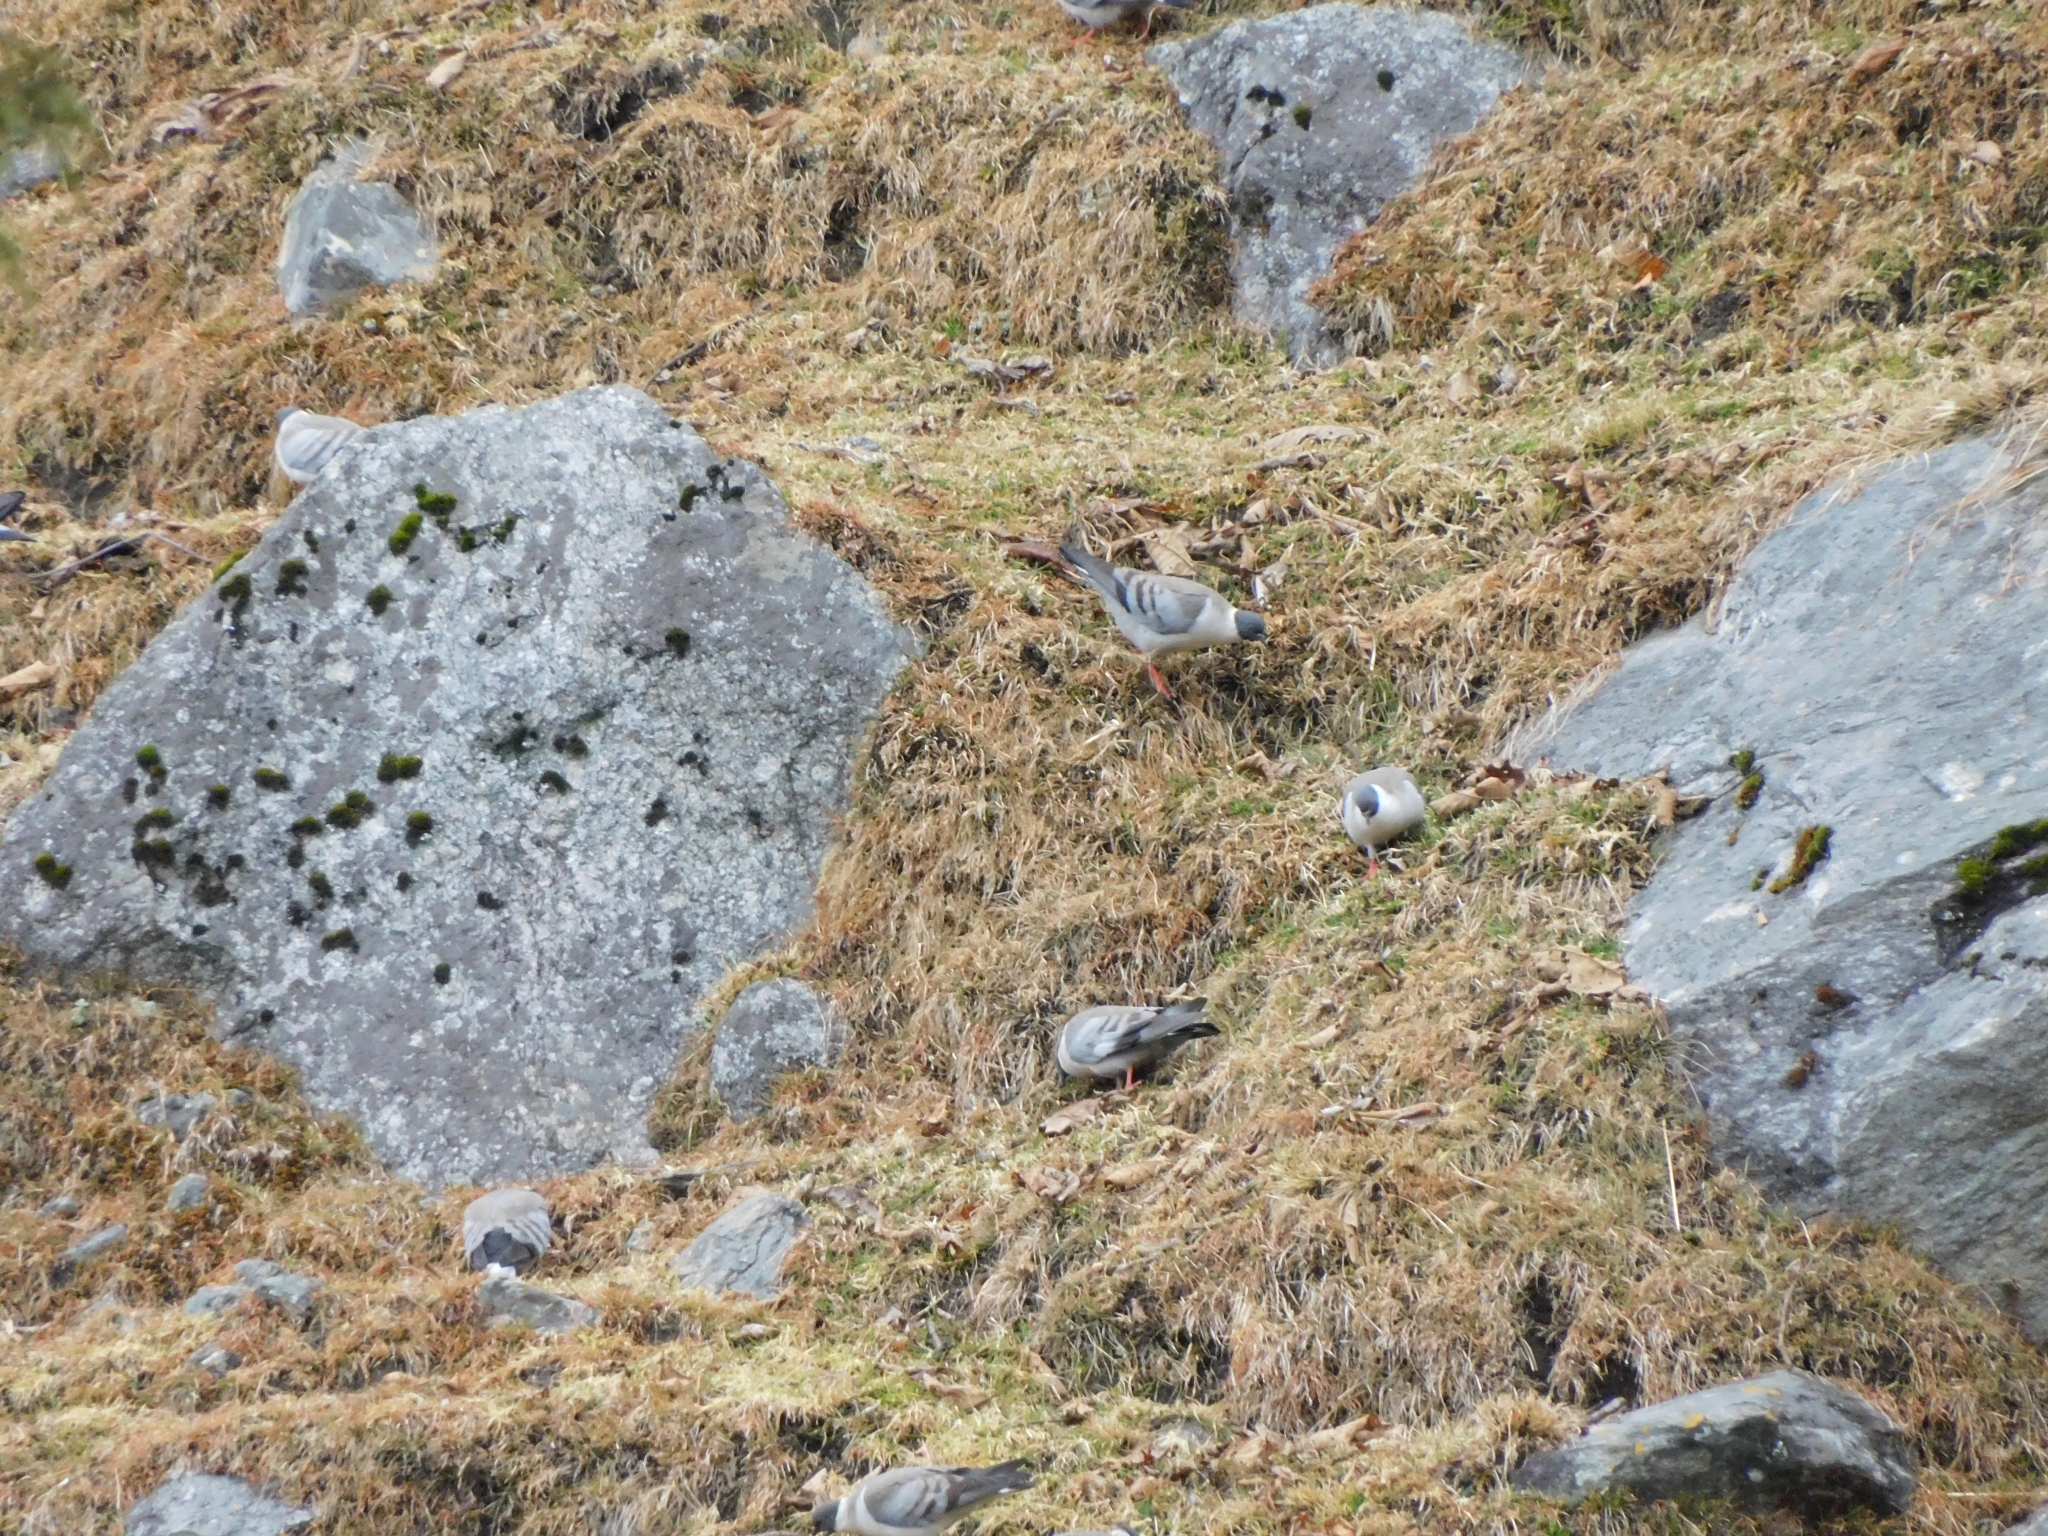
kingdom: Animalia
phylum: Chordata
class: Aves
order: Columbiformes
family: Columbidae
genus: Columba
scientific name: Columba leuconota
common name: Snow pigeon
